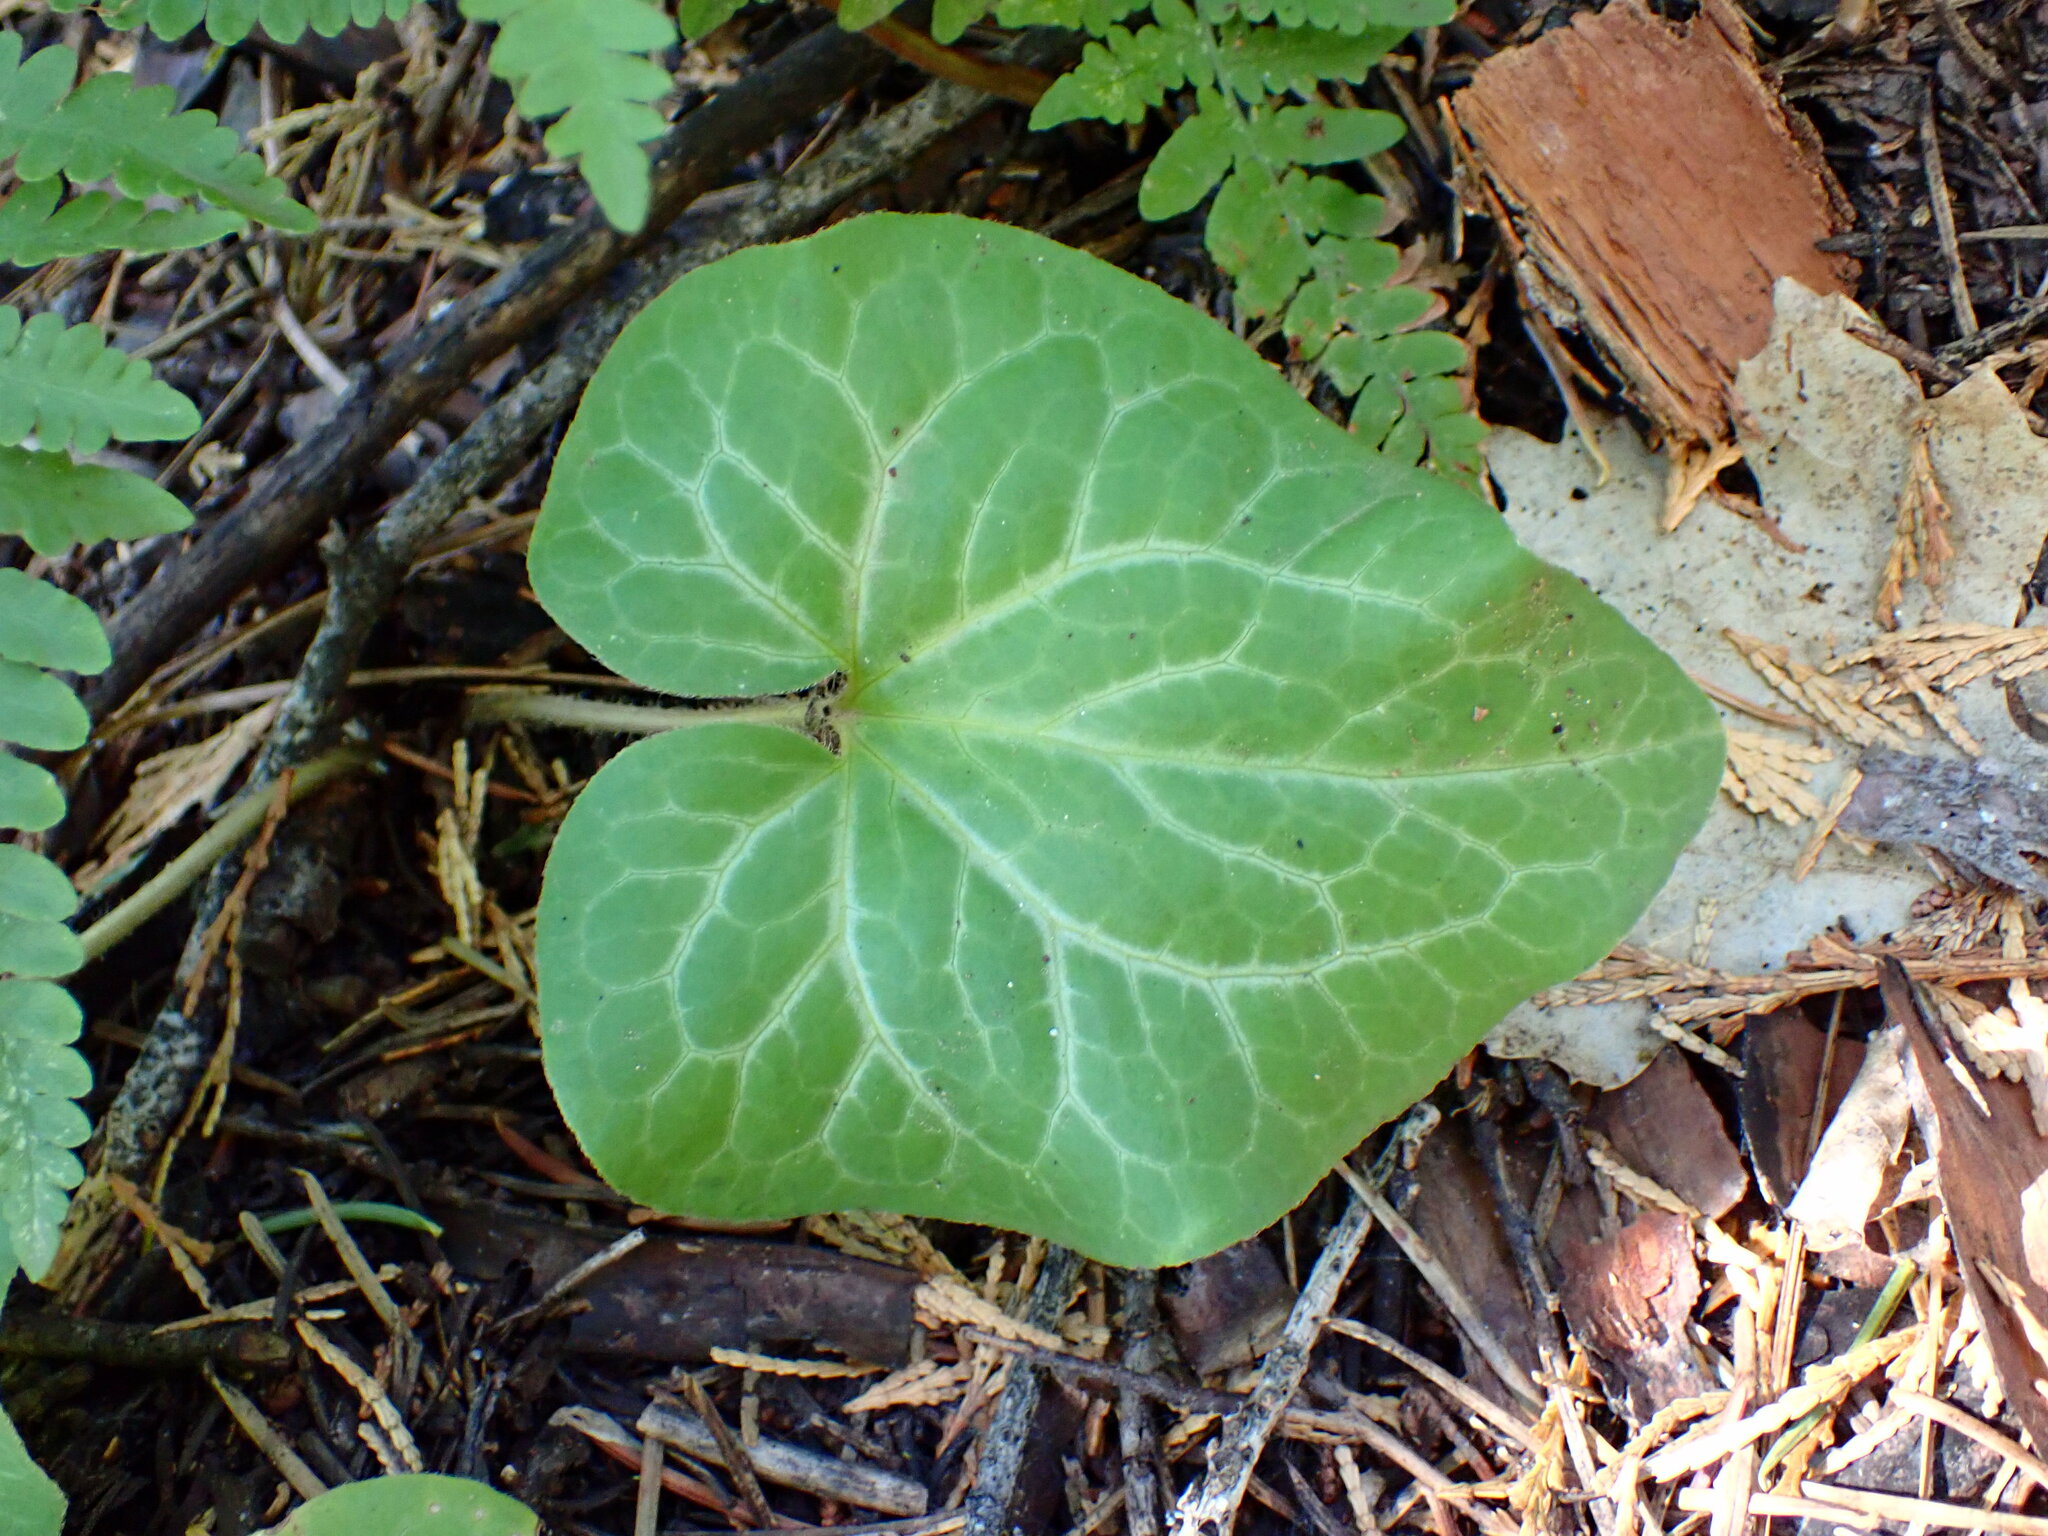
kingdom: Plantae
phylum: Tracheophyta
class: Magnoliopsida
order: Piperales
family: Aristolochiaceae
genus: Asarum
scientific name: Asarum hartwegii
